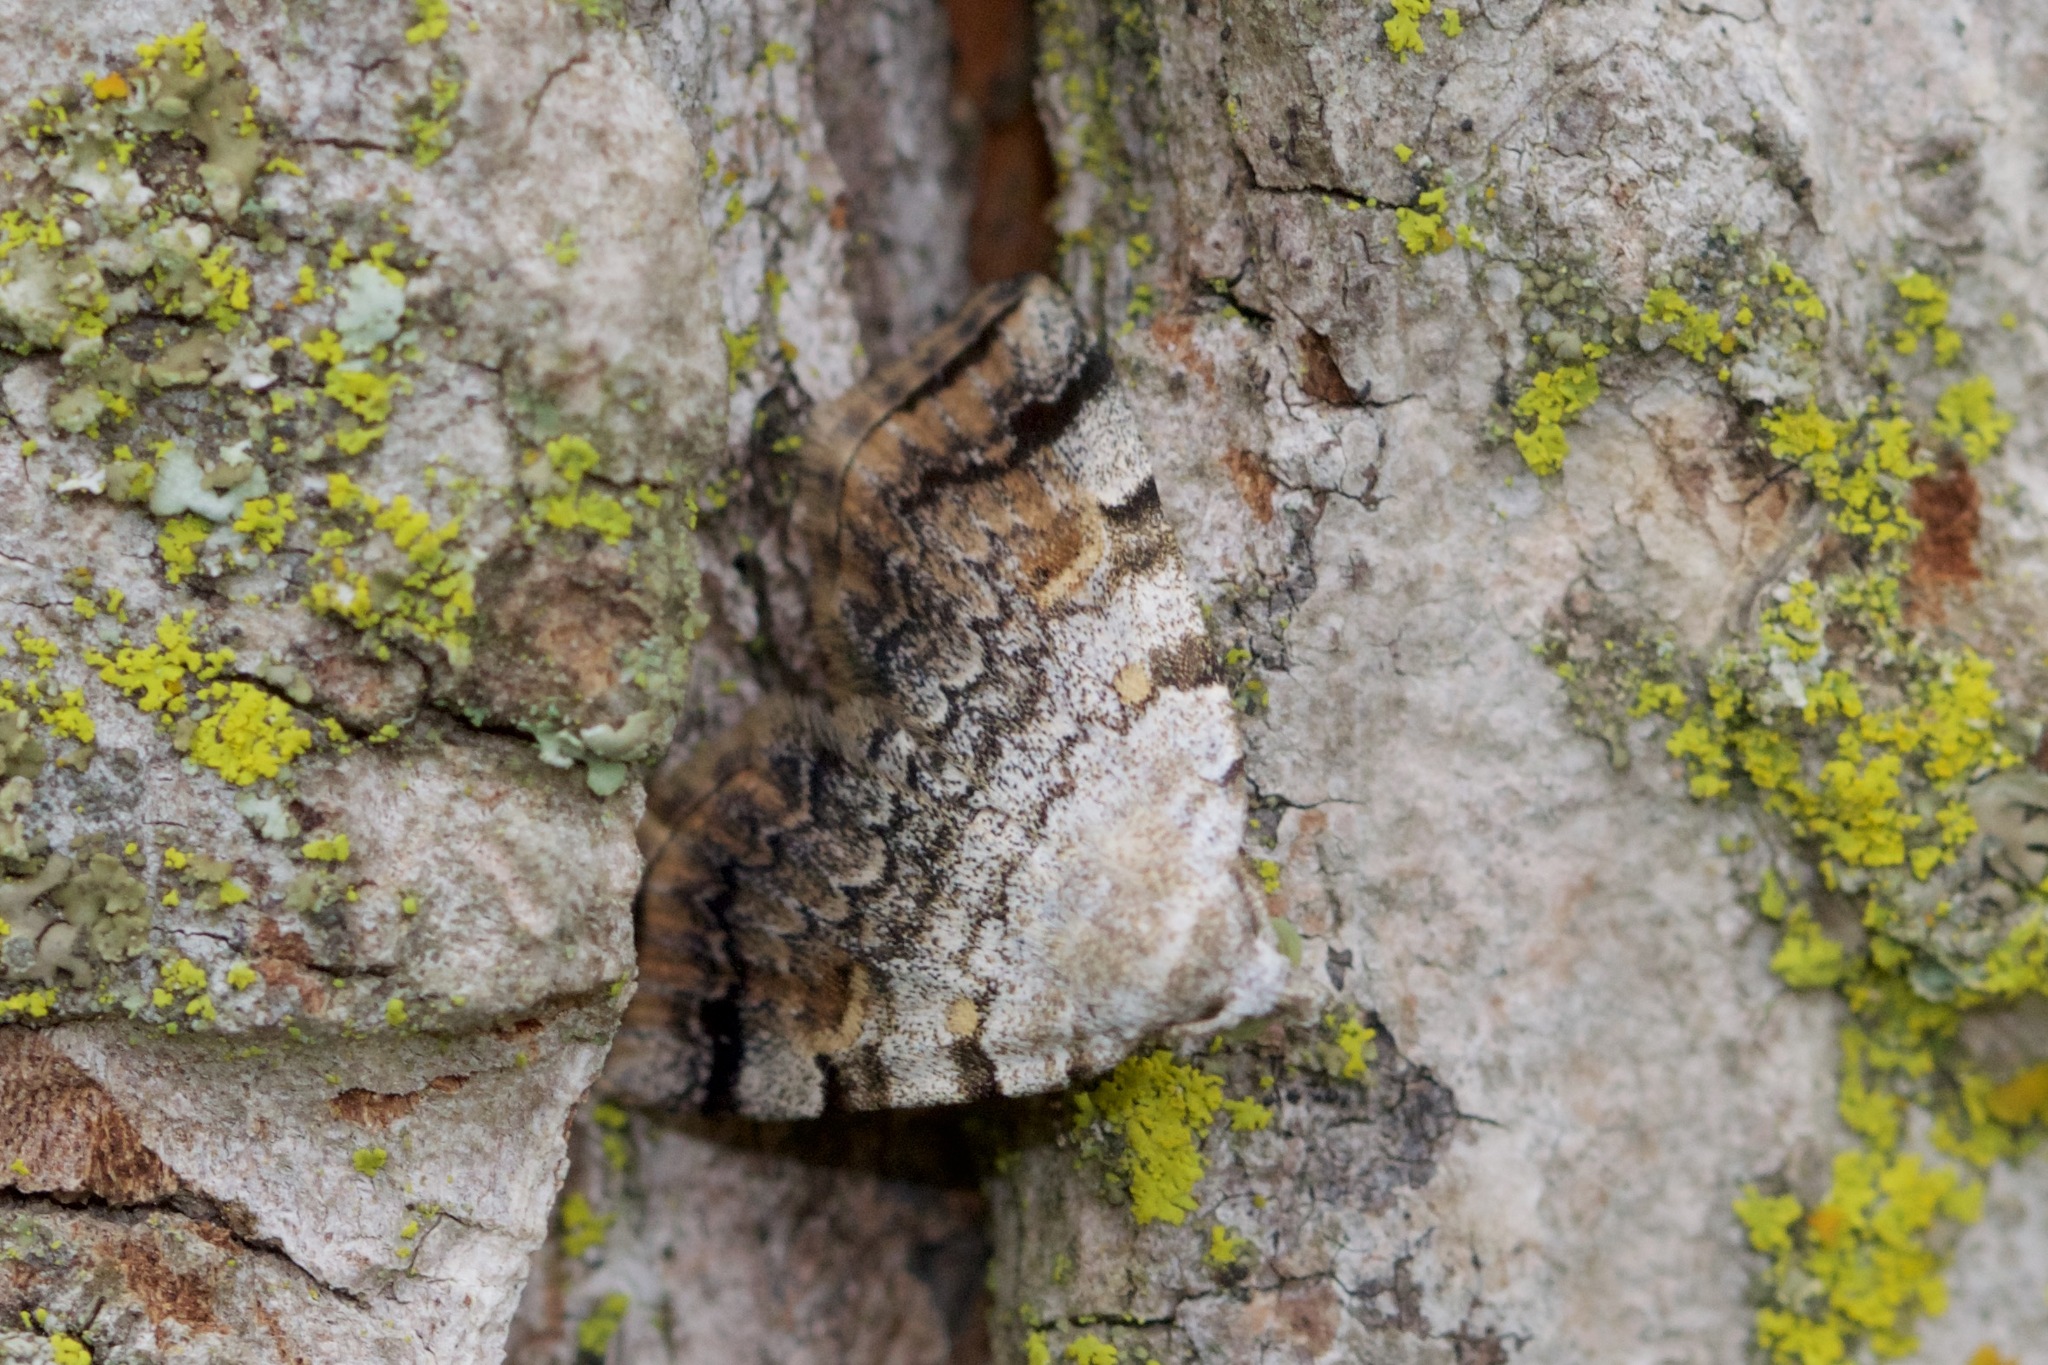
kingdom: Animalia
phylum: Arthropoda
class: Insecta
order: Lepidoptera
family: Erebidae
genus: Idia
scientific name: Idia americalis
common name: American idia moth
